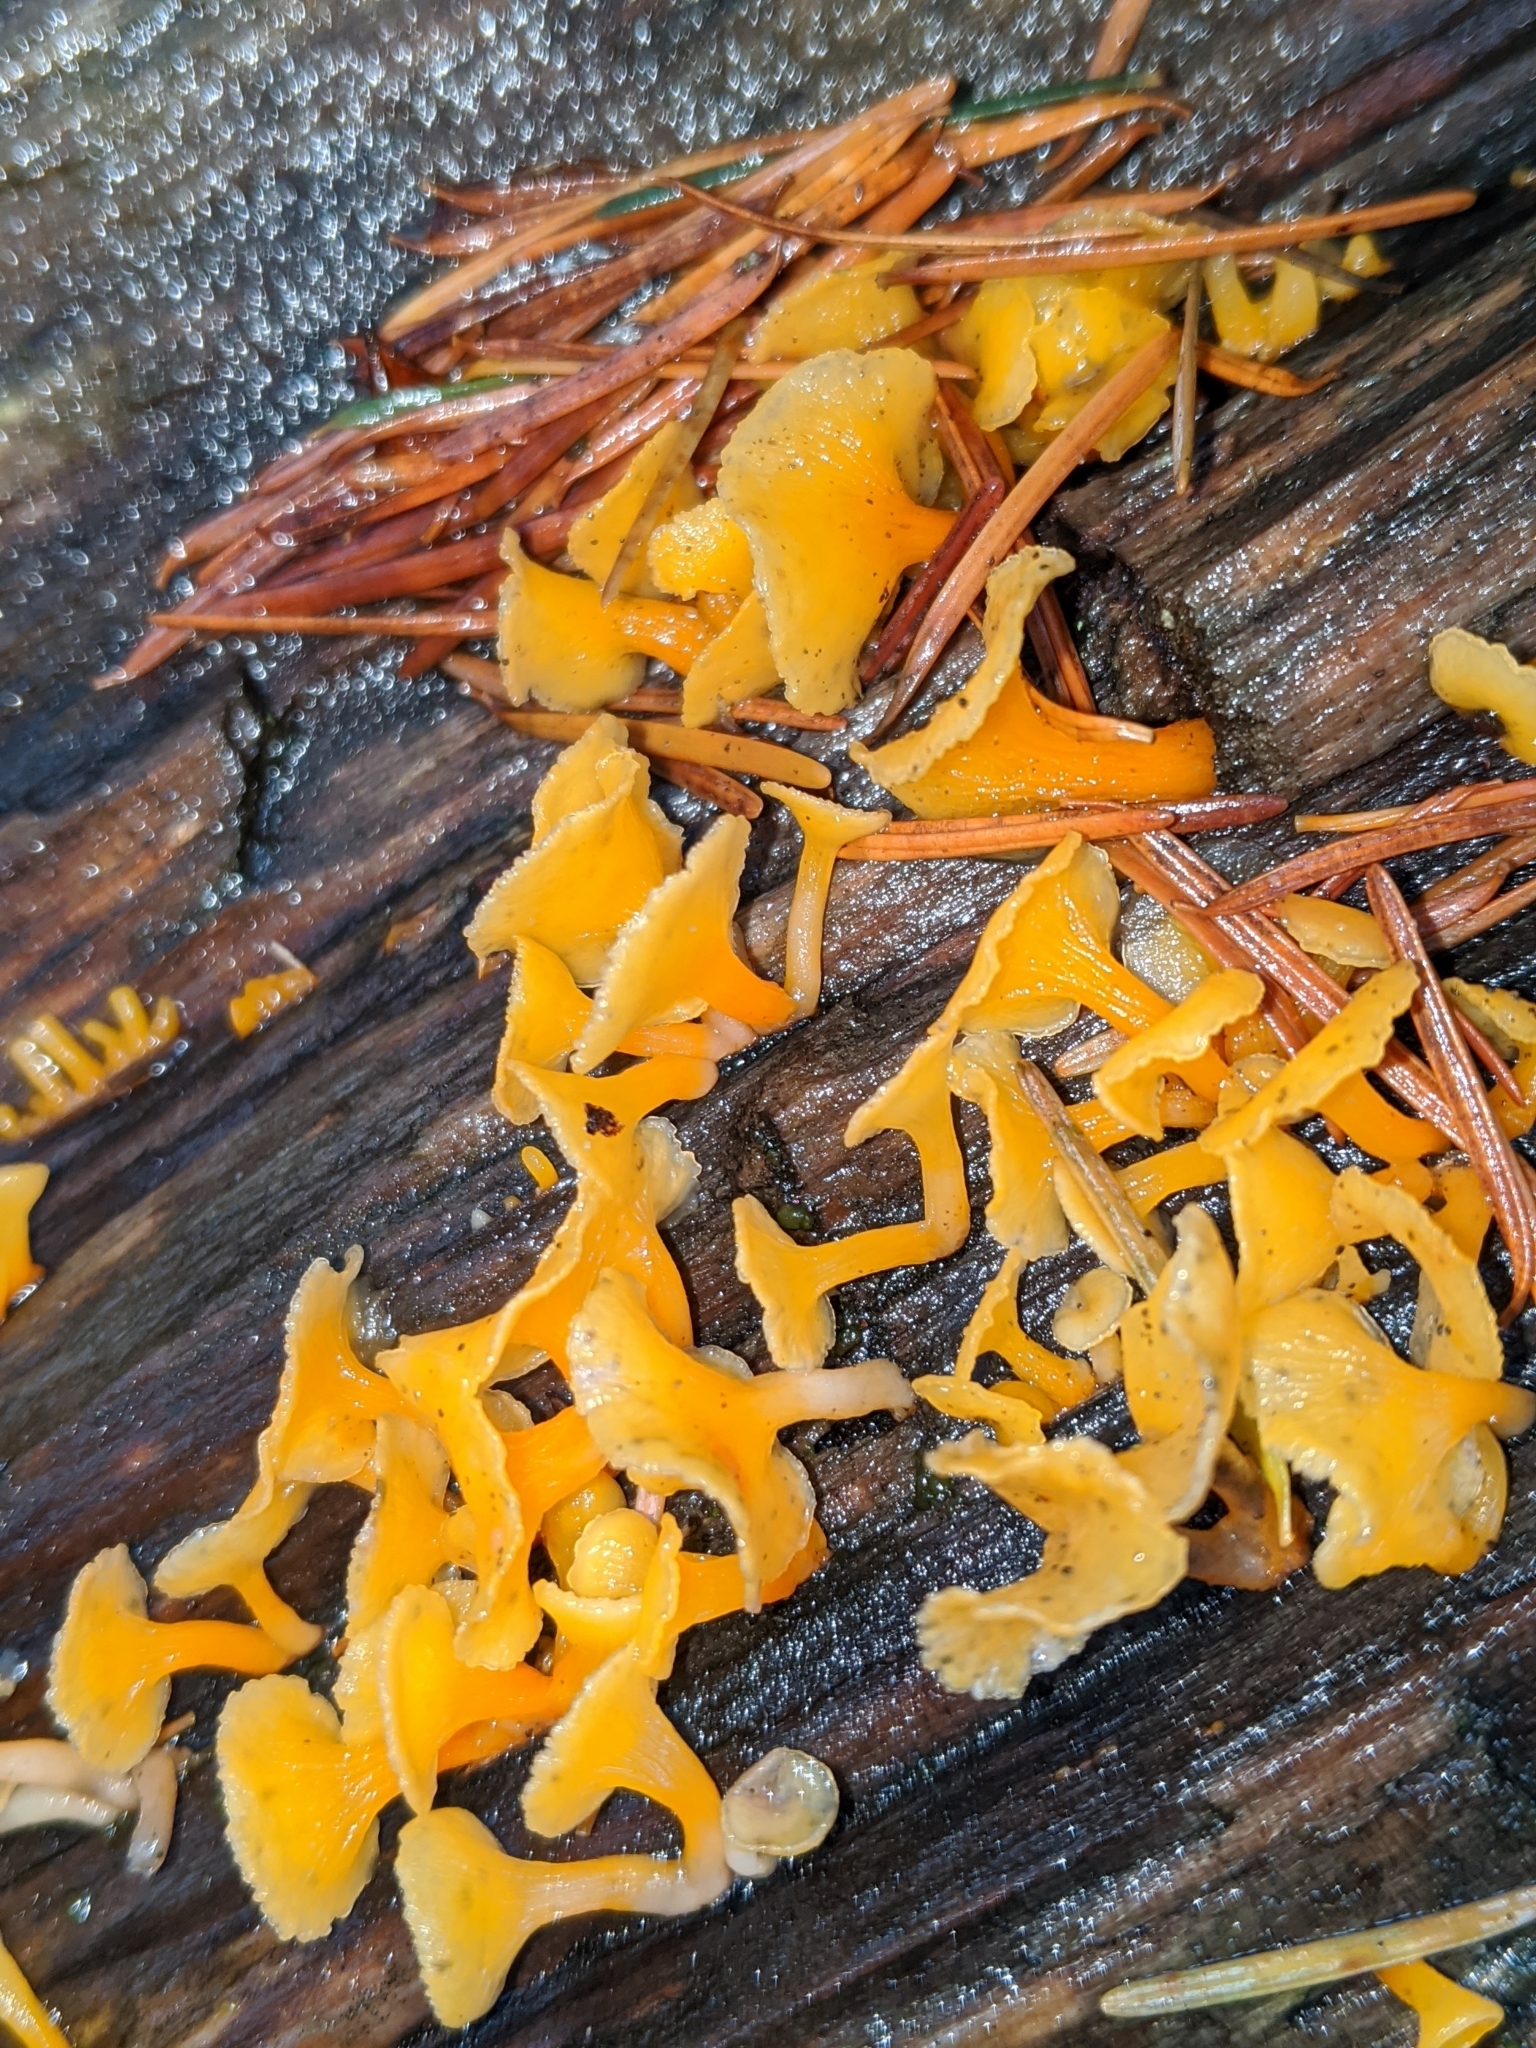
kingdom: Fungi
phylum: Basidiomycota
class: Dacrymycetes
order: Dacrymycetales
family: Dacrymycetaceae
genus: Dacrymyces
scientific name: Dacrymyces spathularius
